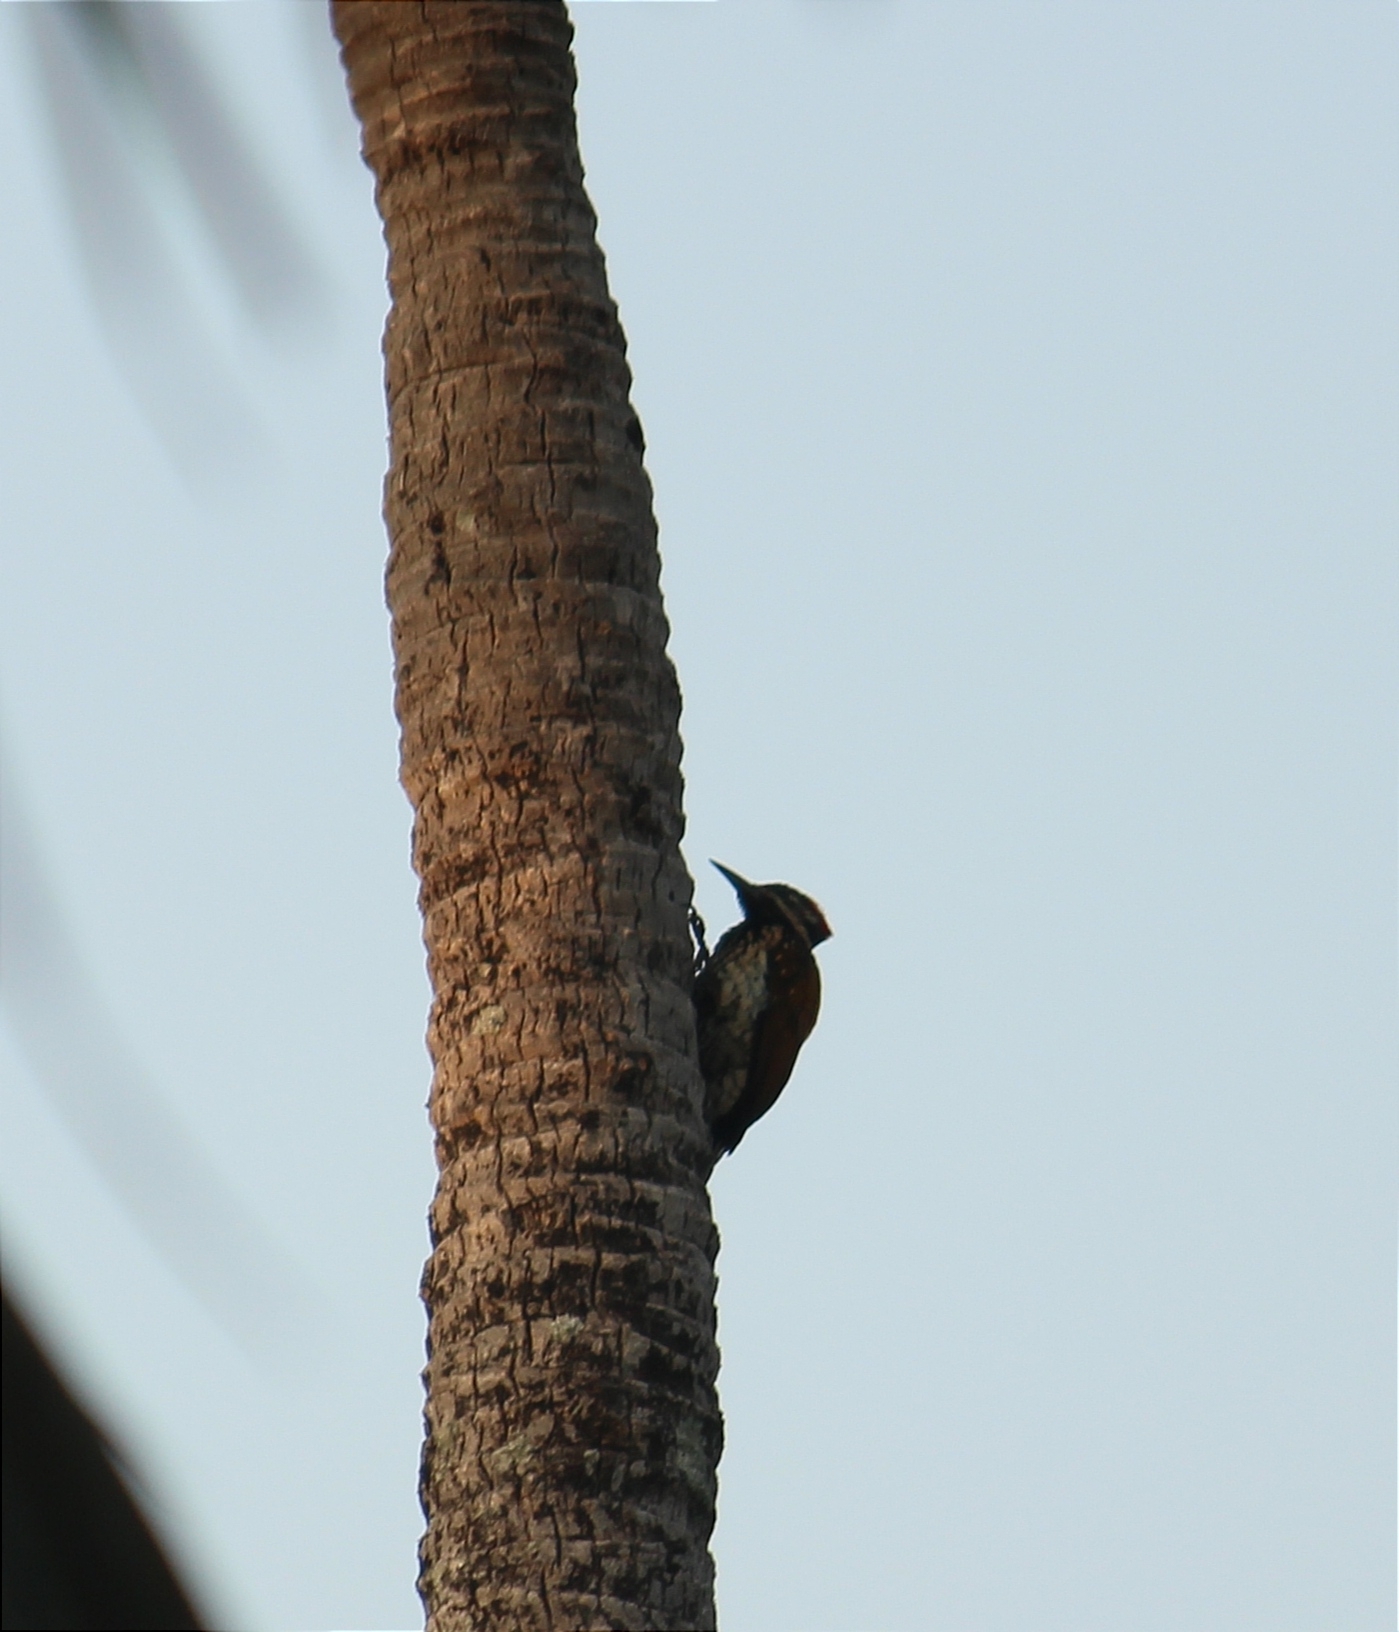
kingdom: Animalia
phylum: Chordata
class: Aves
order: Piciformes
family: Picidae
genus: Dinopium
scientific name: Dinopium benghalense
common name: Black-rumped flameback
